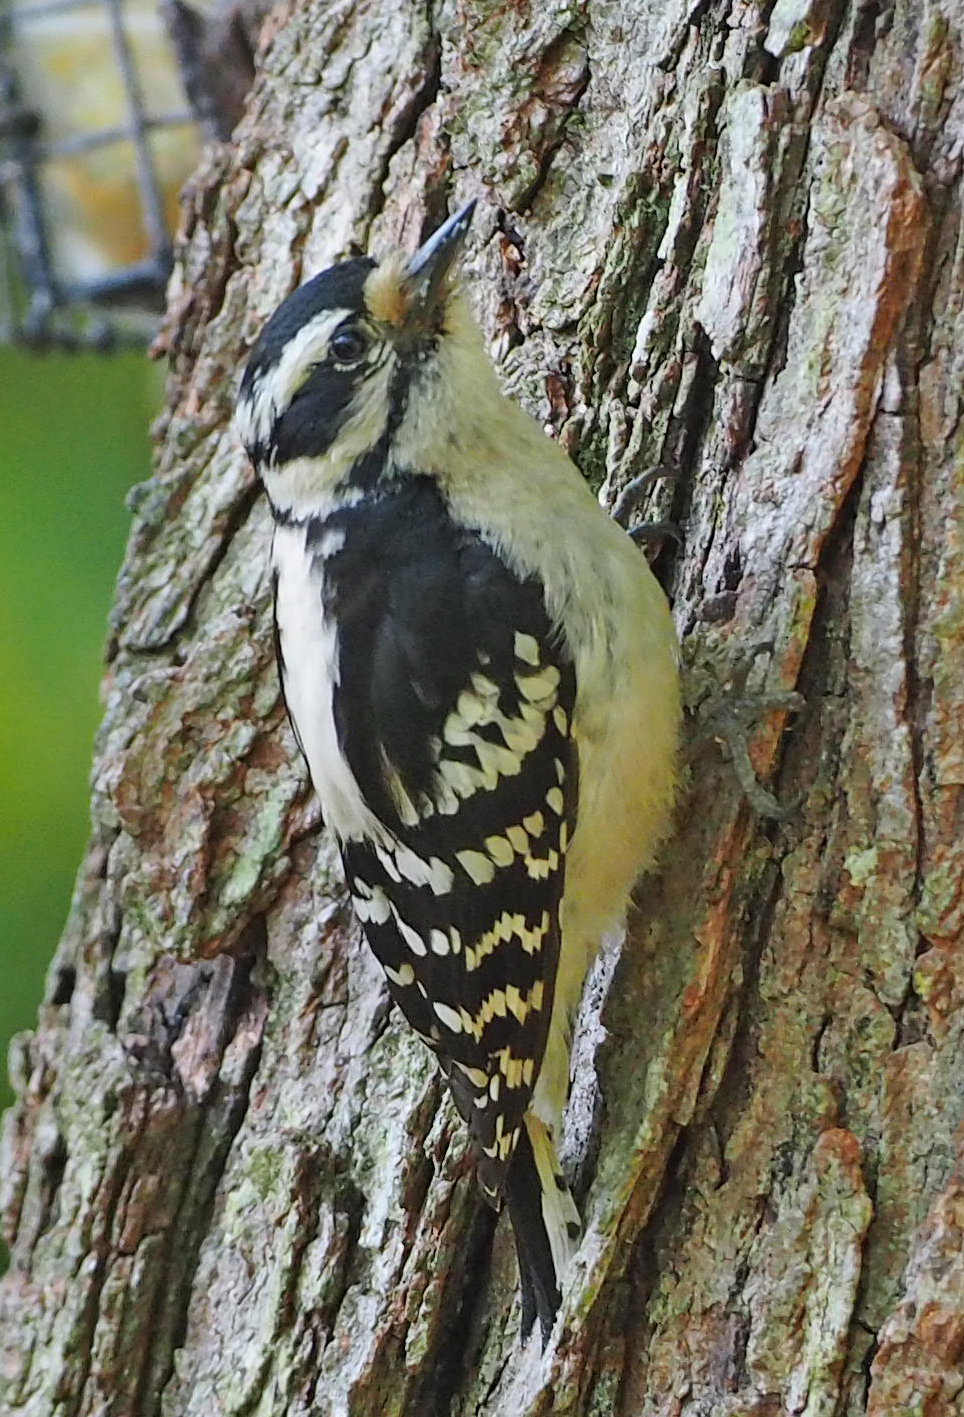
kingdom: Animalia
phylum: Chordata
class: Aves
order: Piciformes
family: Picidae
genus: Dryobates
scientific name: Dryobates pubescens
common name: Downy woodpecker
